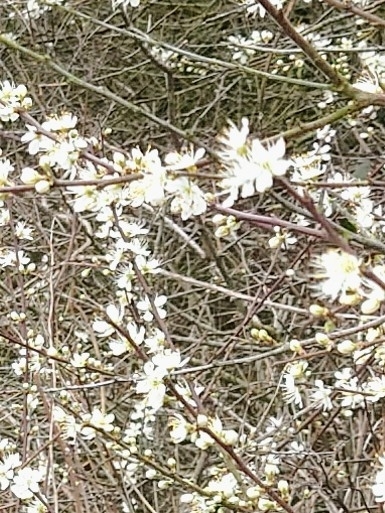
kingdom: Plantae
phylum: Tracheophyta
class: Magnoliopsida
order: Rosales
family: Rosaceae
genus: Prunus
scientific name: Prunus spinosa
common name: Blackthorn
